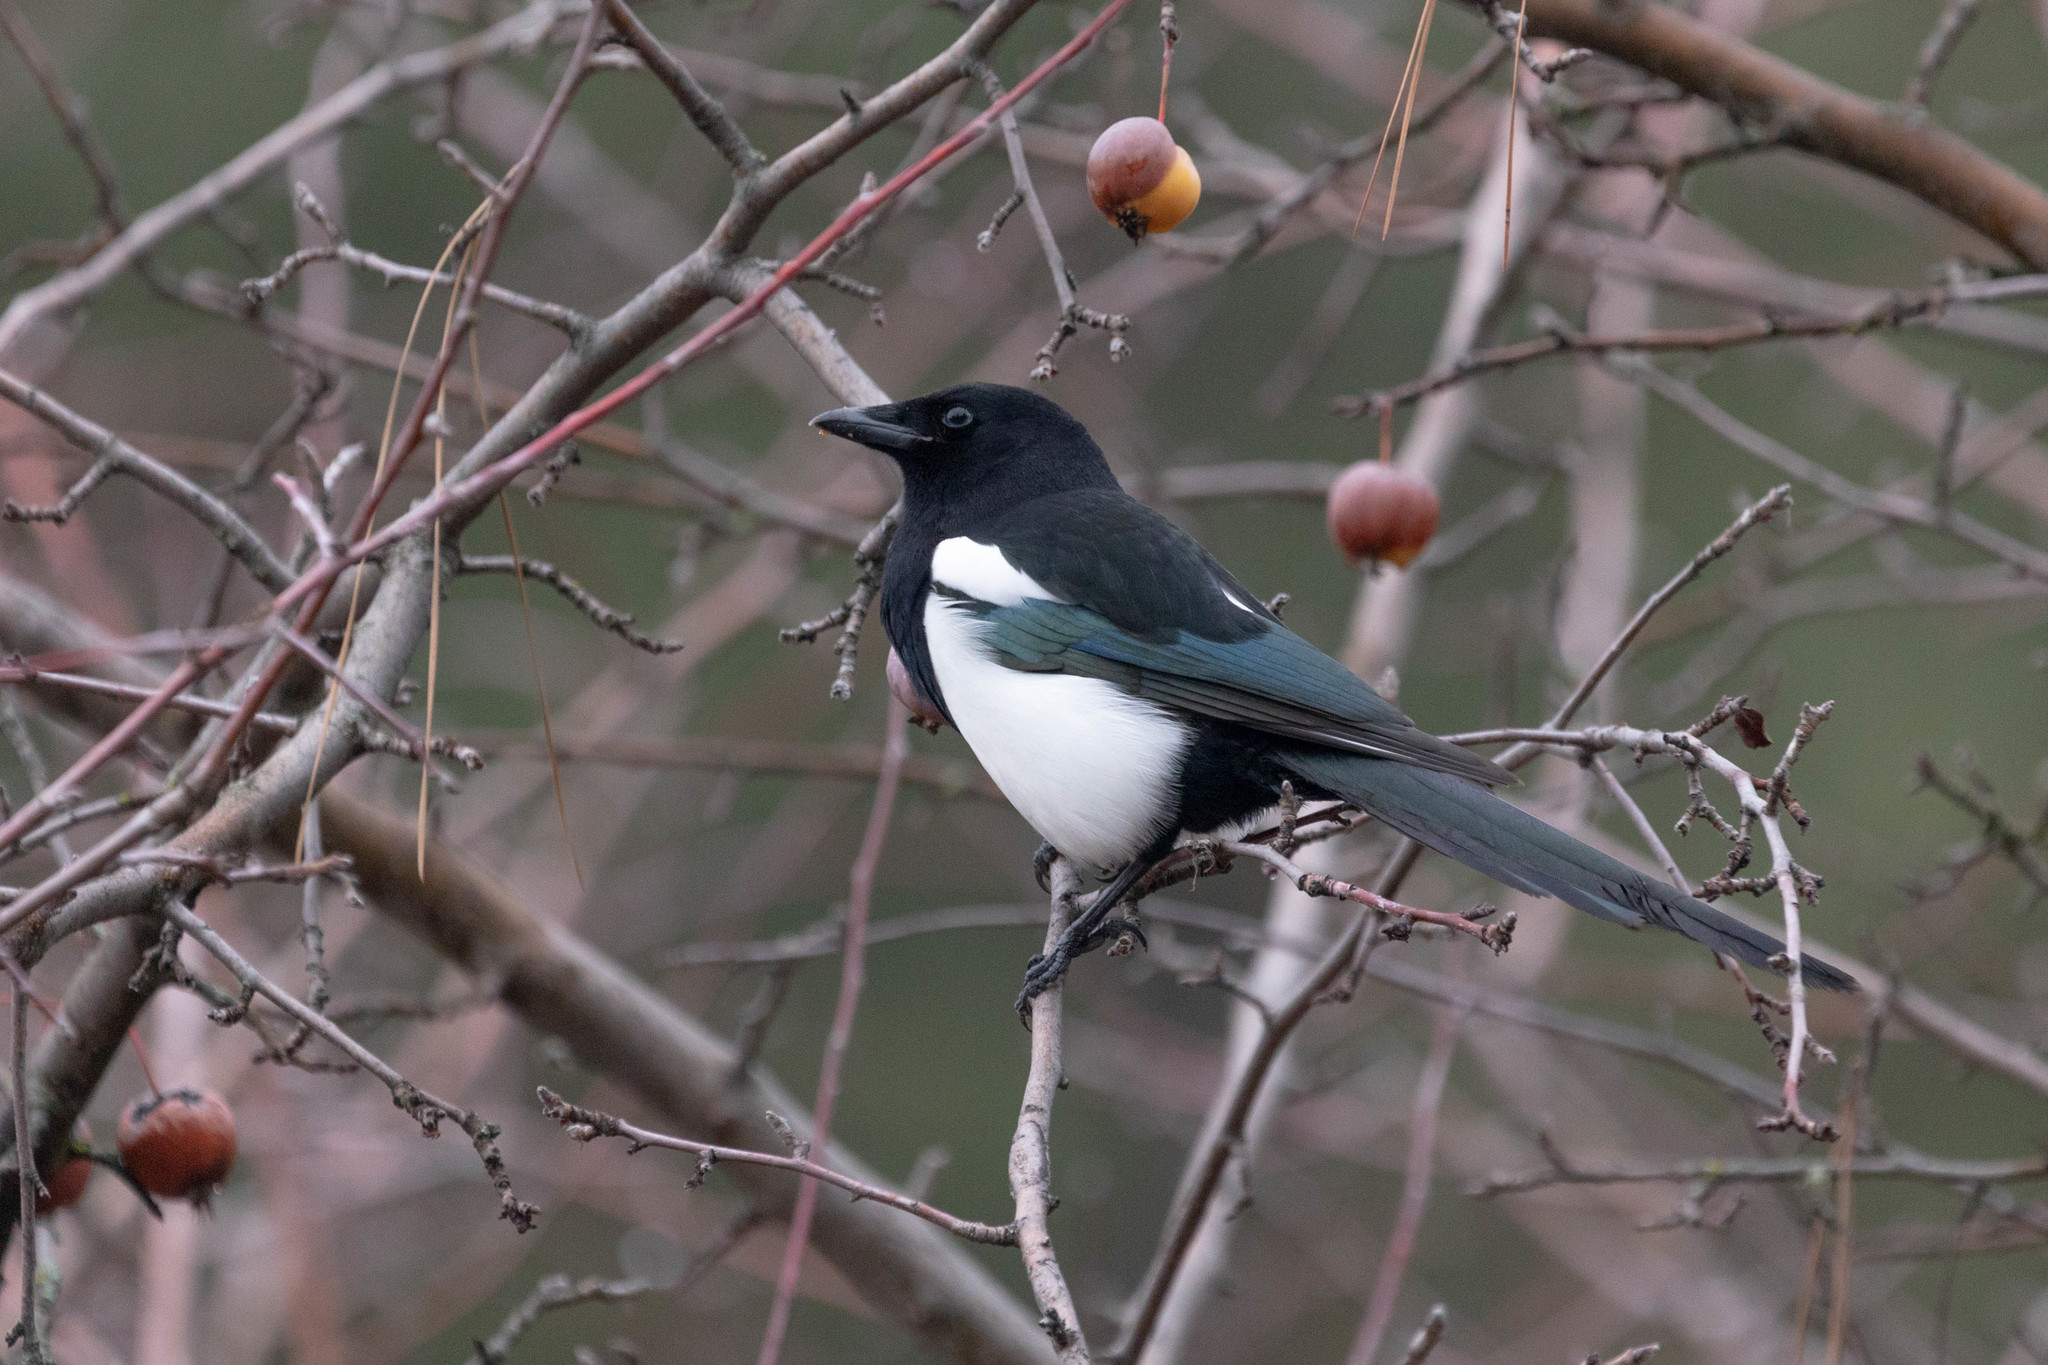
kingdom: Animalia
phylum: Chordata
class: Aves
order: Passeriformes
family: Corvidae
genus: Pica
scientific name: Pica hudsonia
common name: Black-billed magpie
